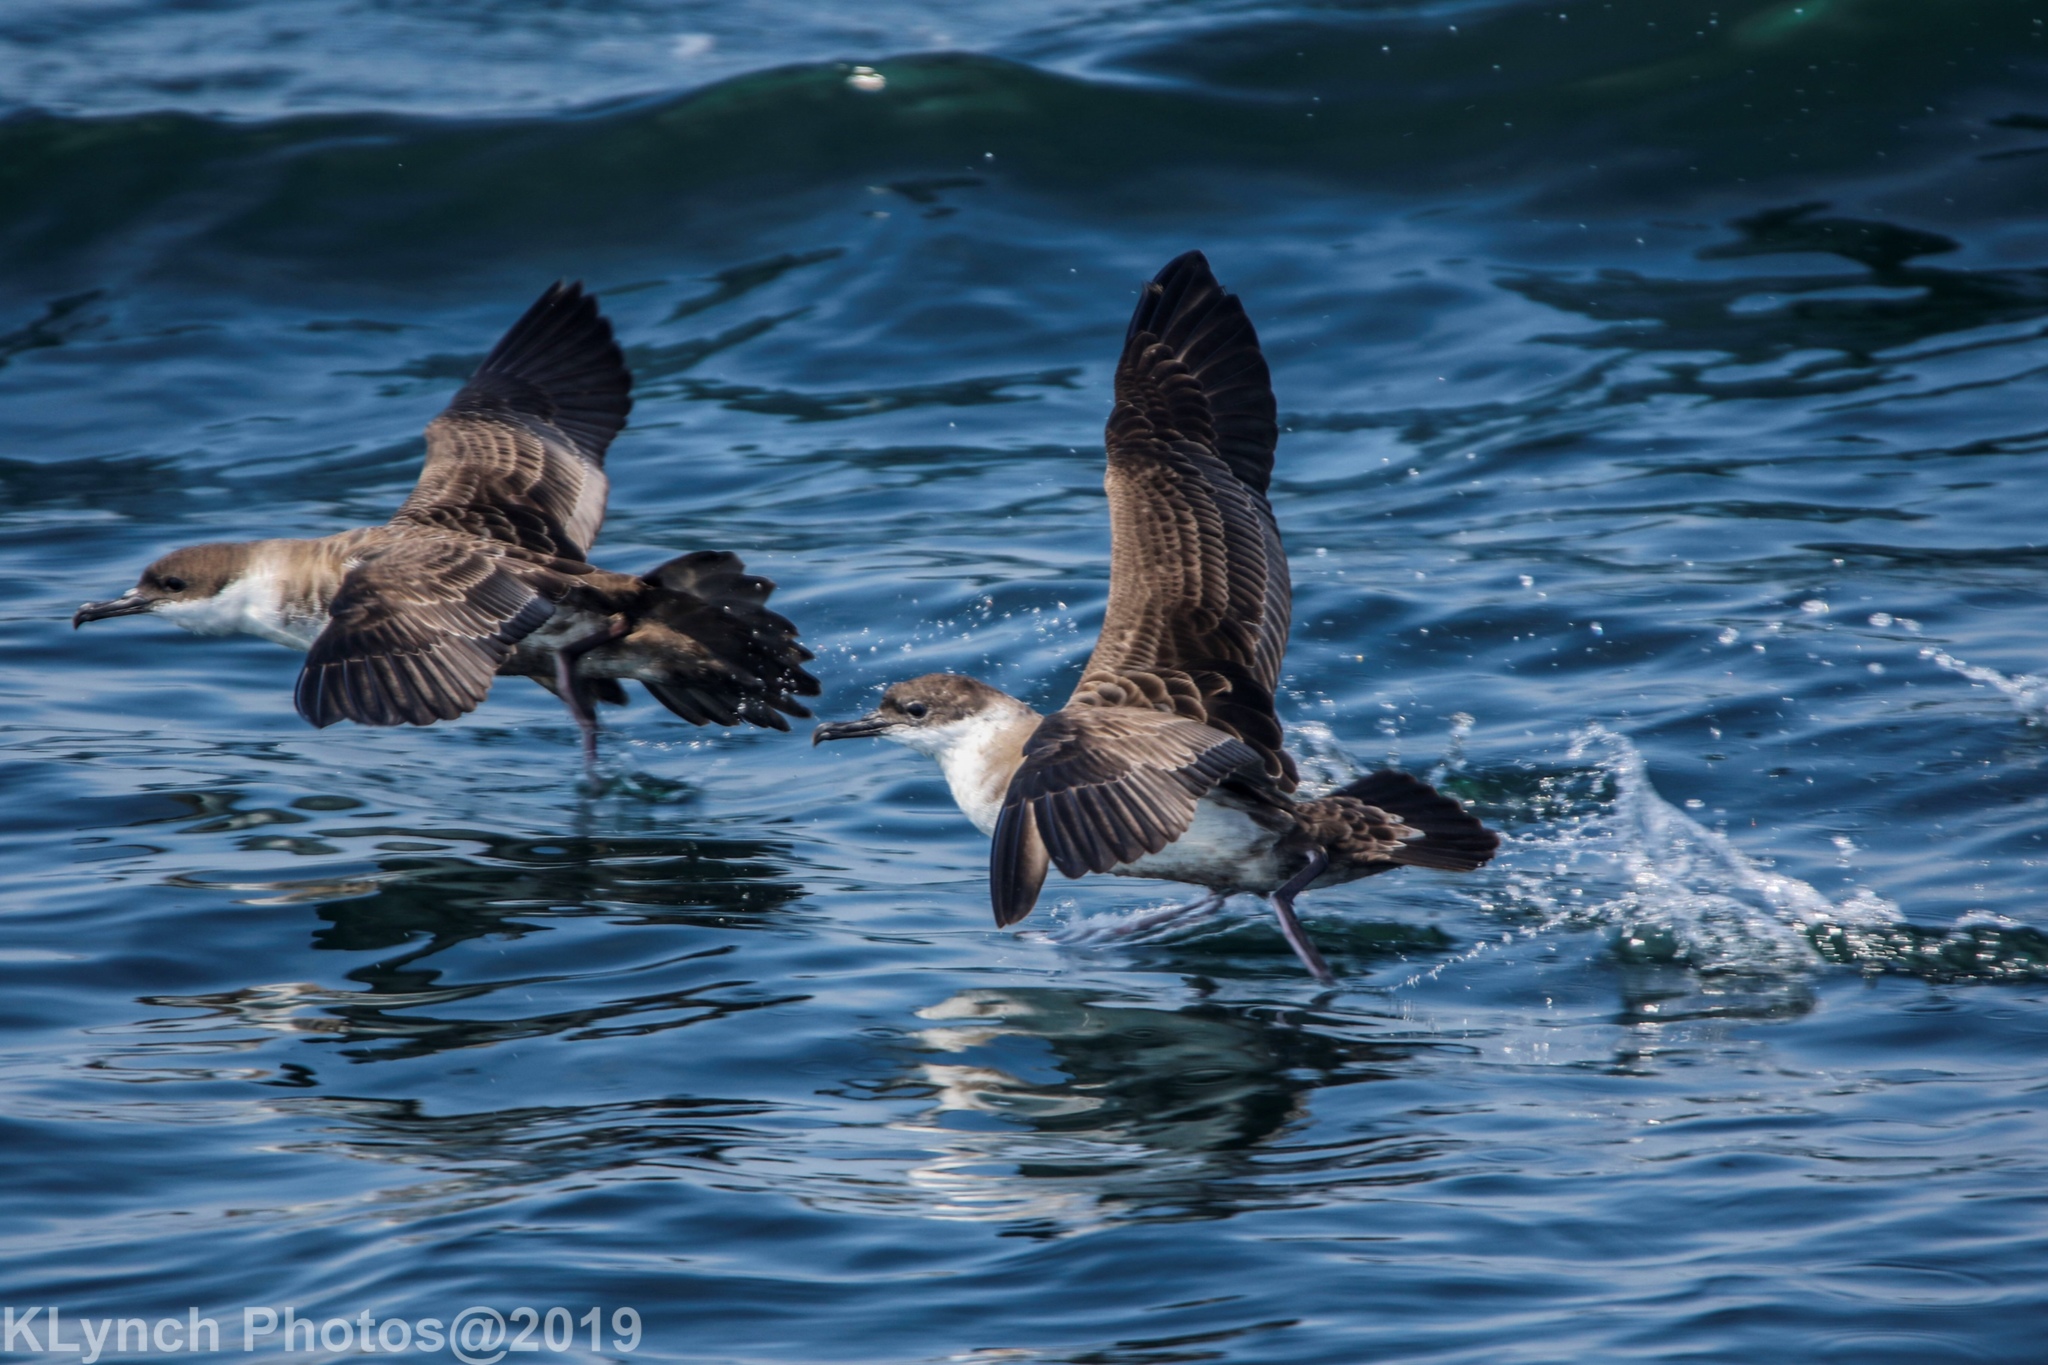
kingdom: Animalia
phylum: Chordata
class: Aves
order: Procellariiformes
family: Procellariidae
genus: Puffinus
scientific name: Puffinus gravis
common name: Great shearwater
